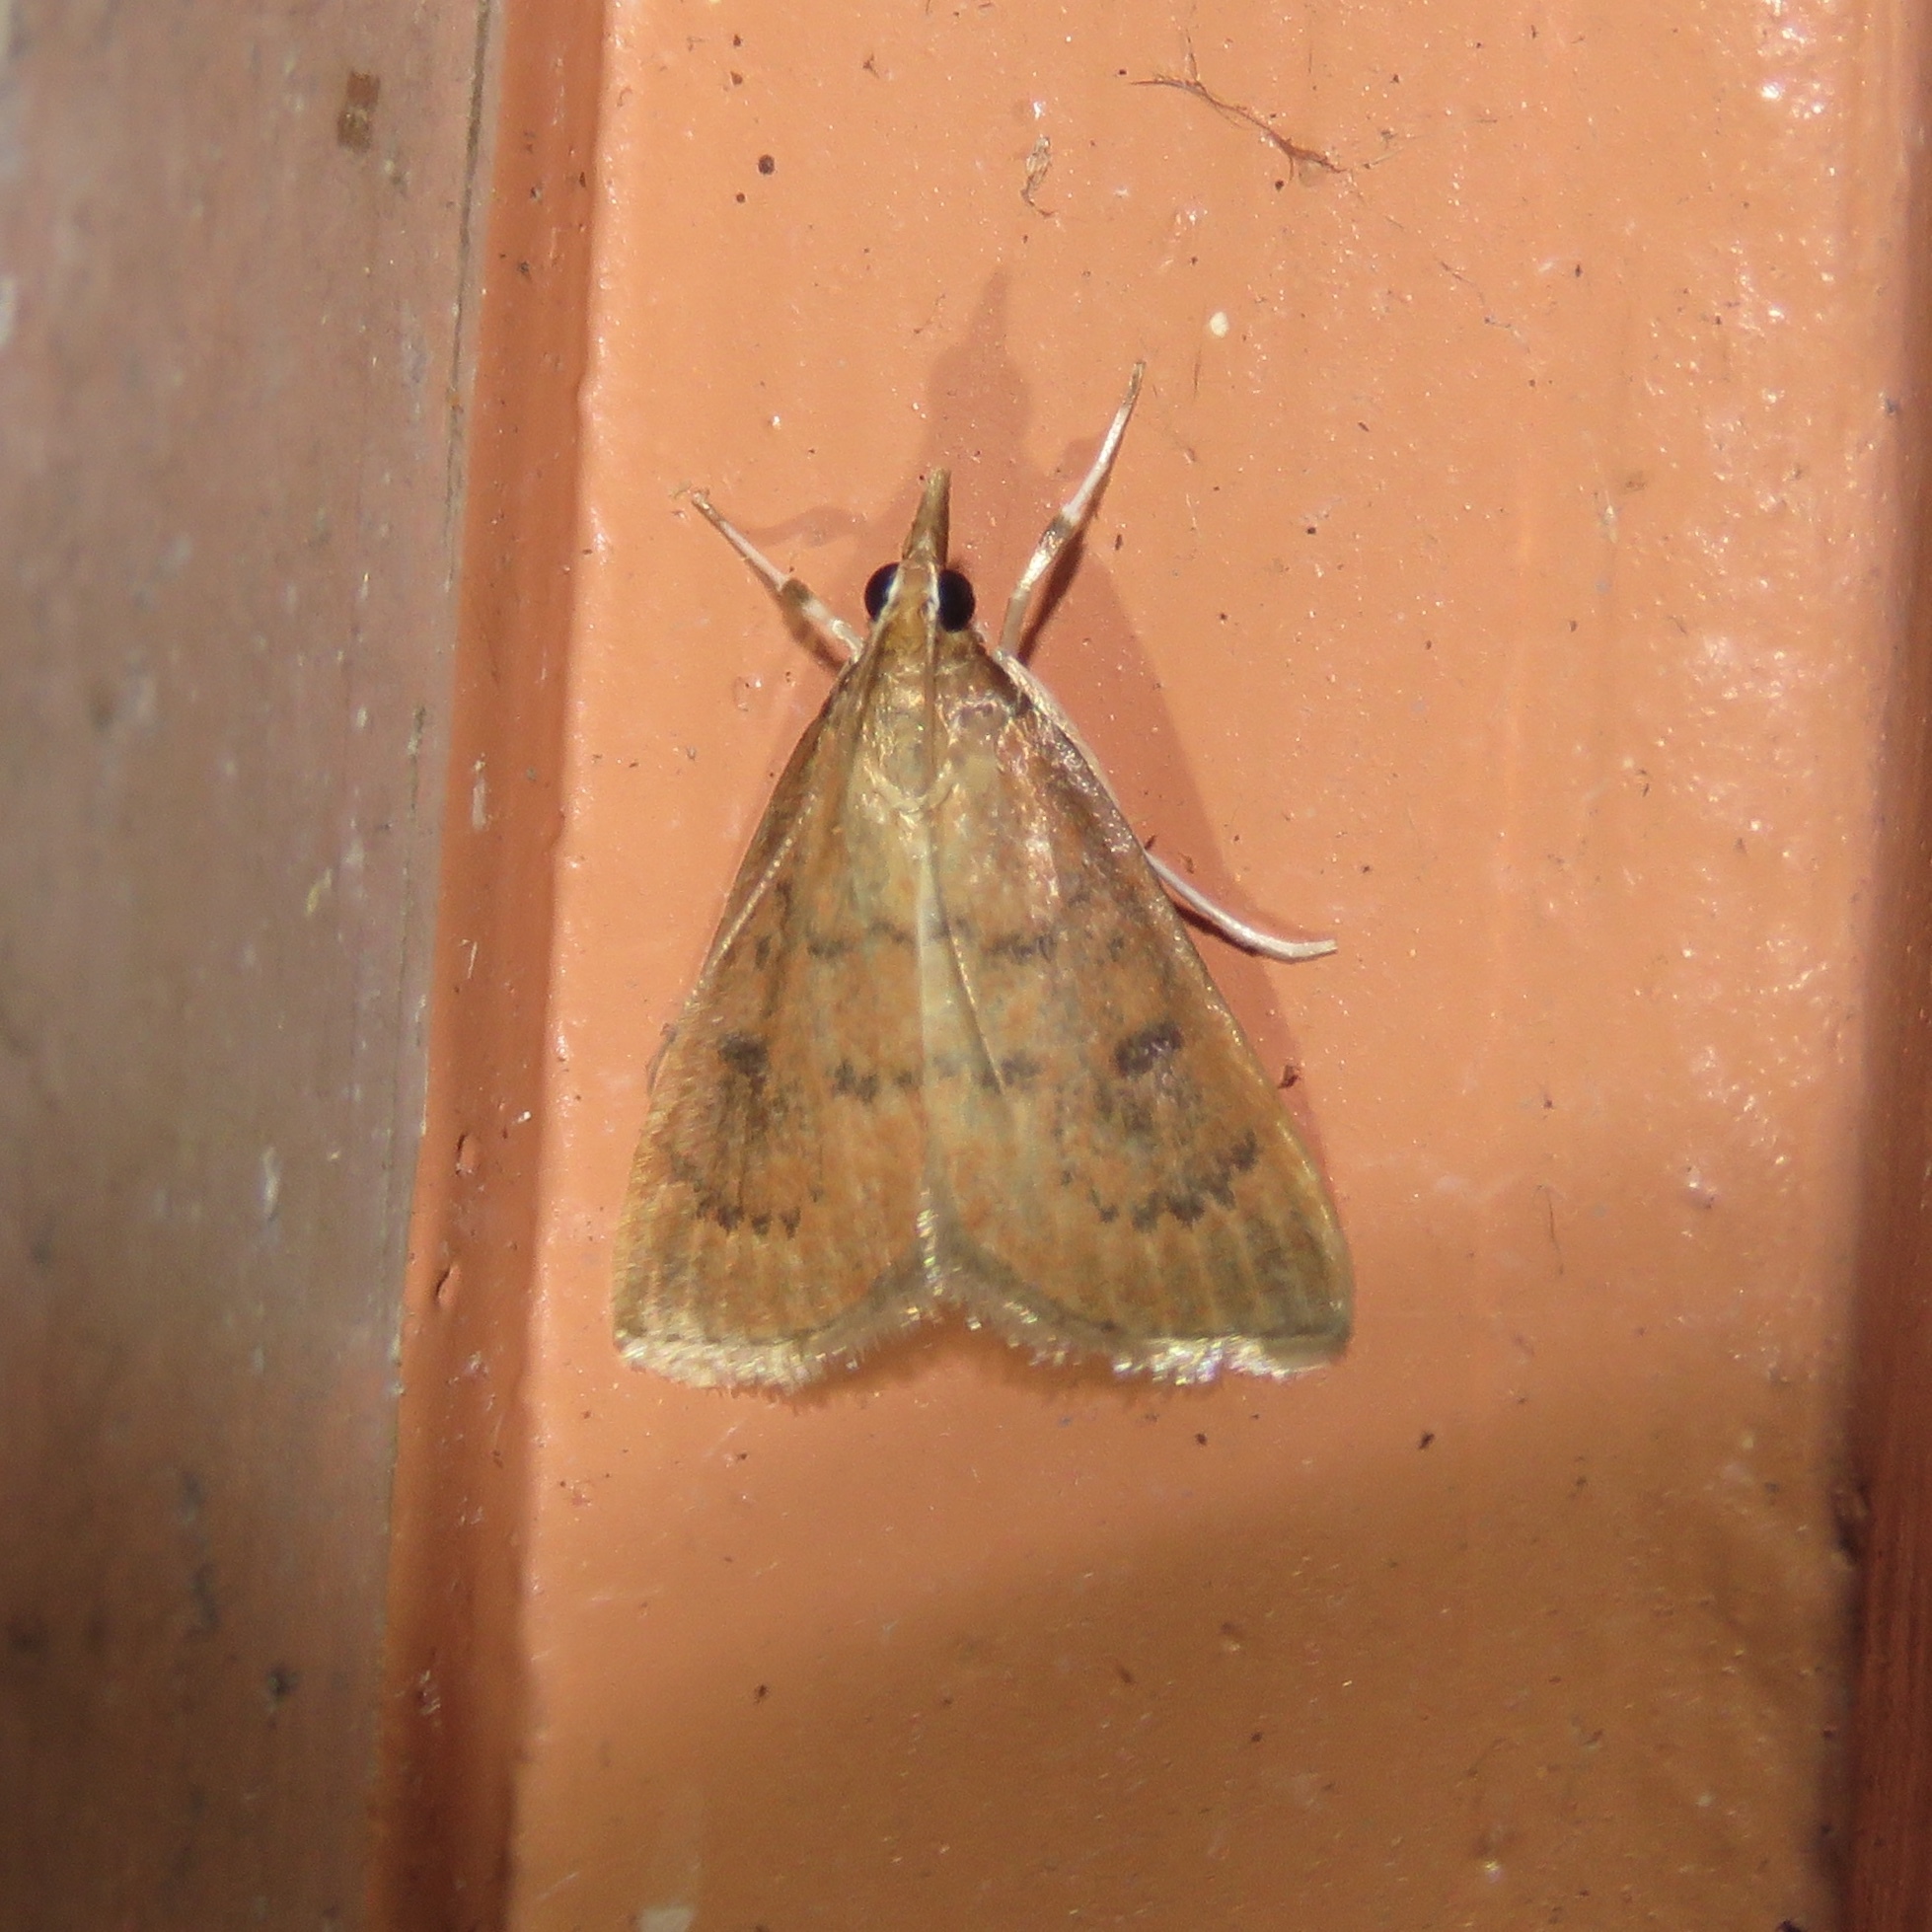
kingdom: Animalia
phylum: Arthropoda
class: Insecta
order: Lepidoptera
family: Crambidae
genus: Oenobotys
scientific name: Oenobotys vinotinctalis
